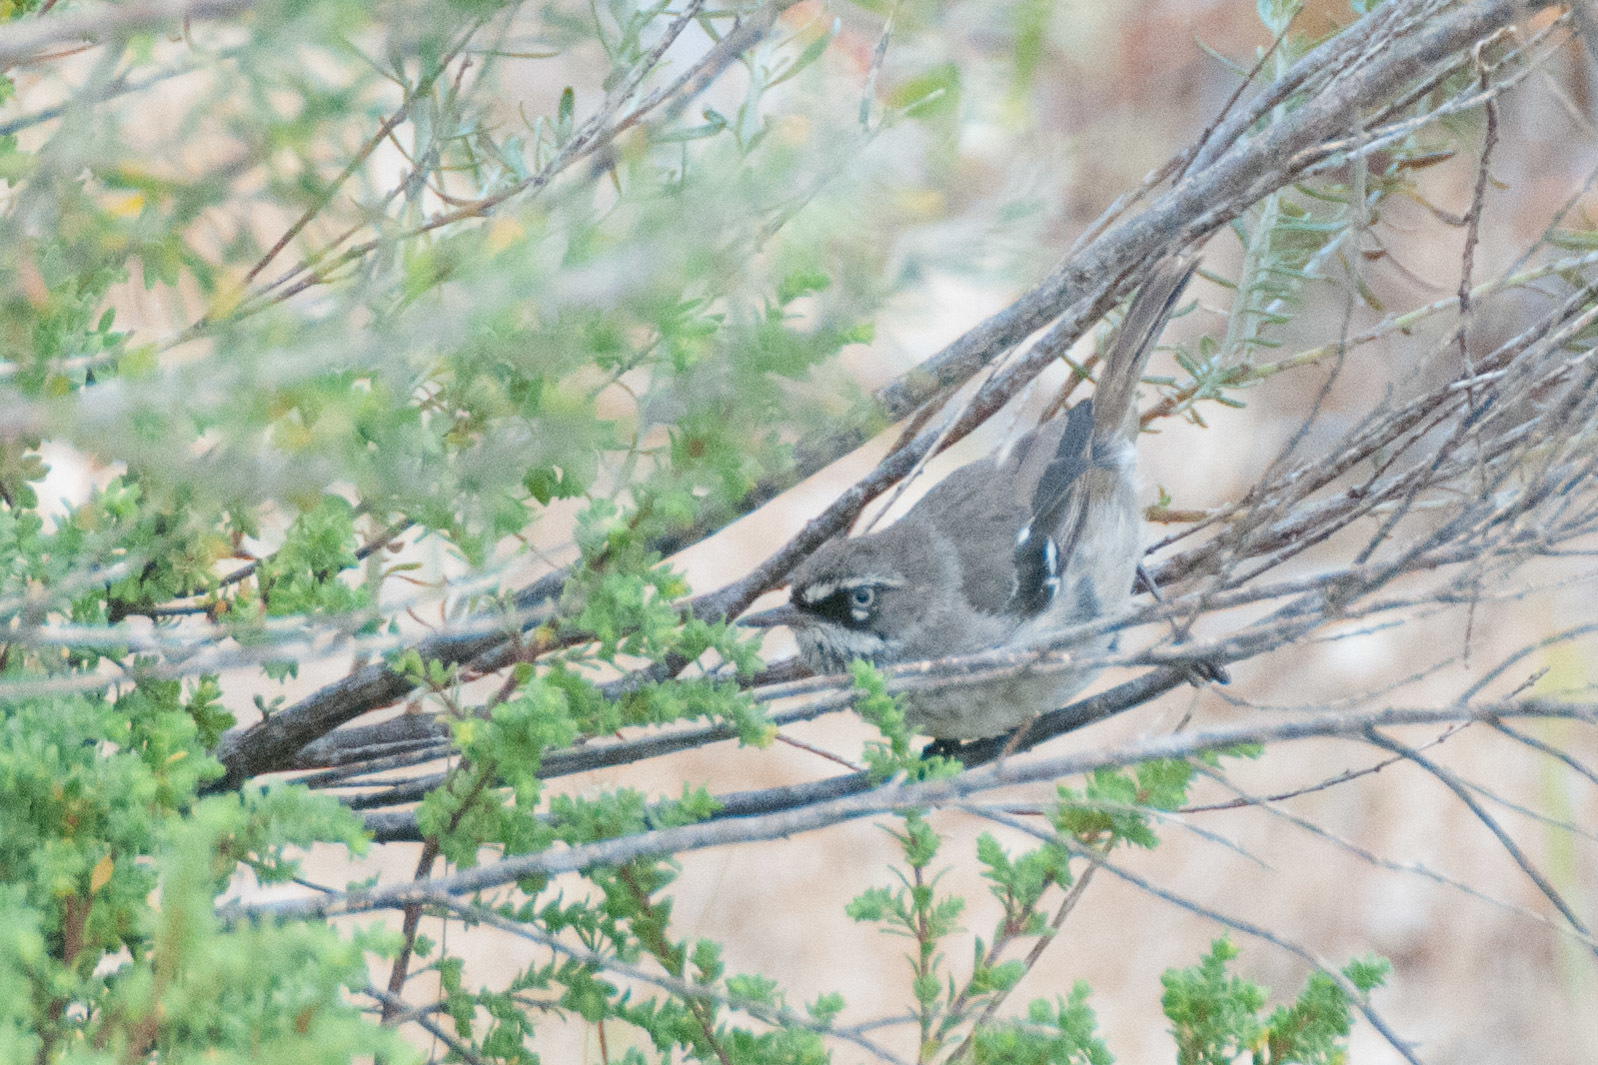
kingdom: Animalia
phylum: Chordata
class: Aves
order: Passeriformes
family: Acanthizidae
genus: Sericornis
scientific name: Sericornis maculatus
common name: Spotted scrubwren
